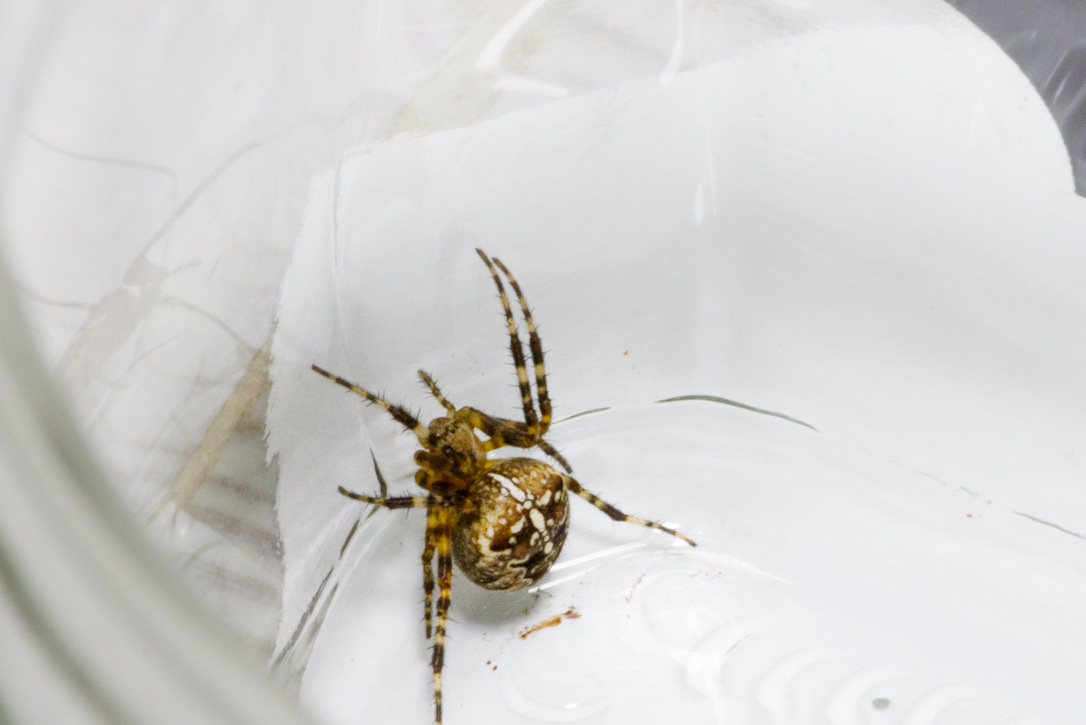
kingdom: Animalia
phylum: Arthropoda
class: Arachnida
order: Araneae
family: Araneidae
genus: Araneus
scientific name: Araneus diadematus
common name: Cross orbweaver
